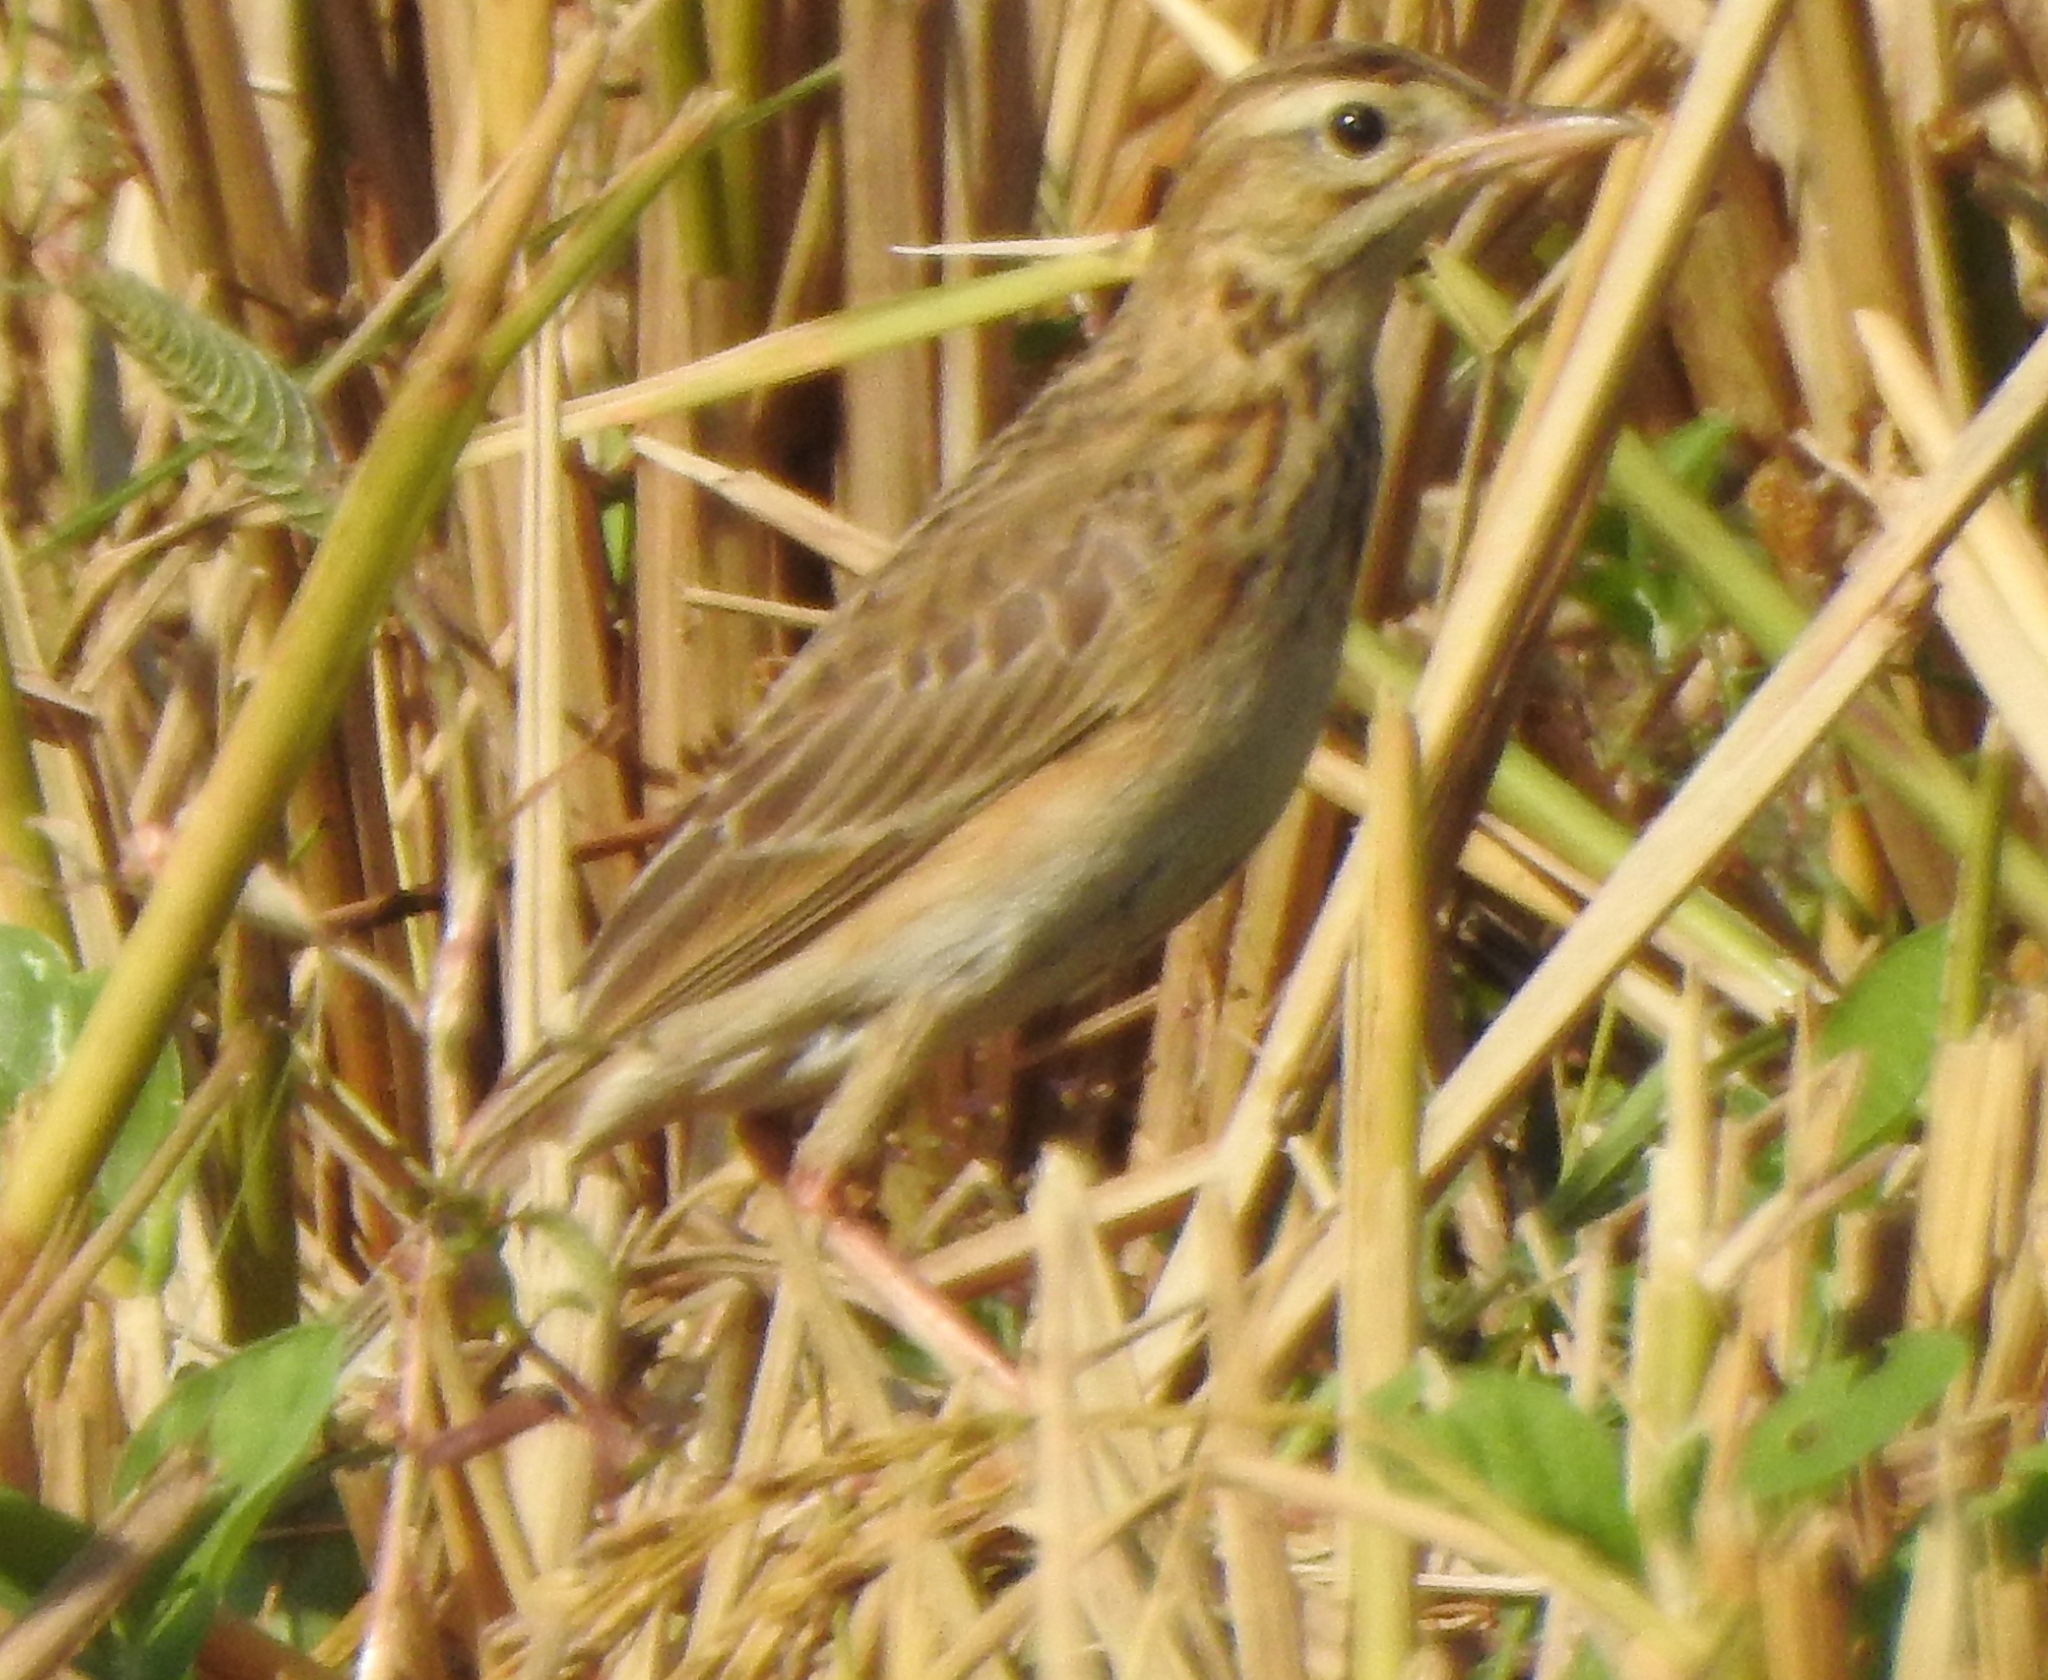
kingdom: Animalia
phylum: Chordata
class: Aves
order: Passeriformes
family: Motacillidae
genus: Anthus
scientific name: Anthus richardi
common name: Richard's pipit
